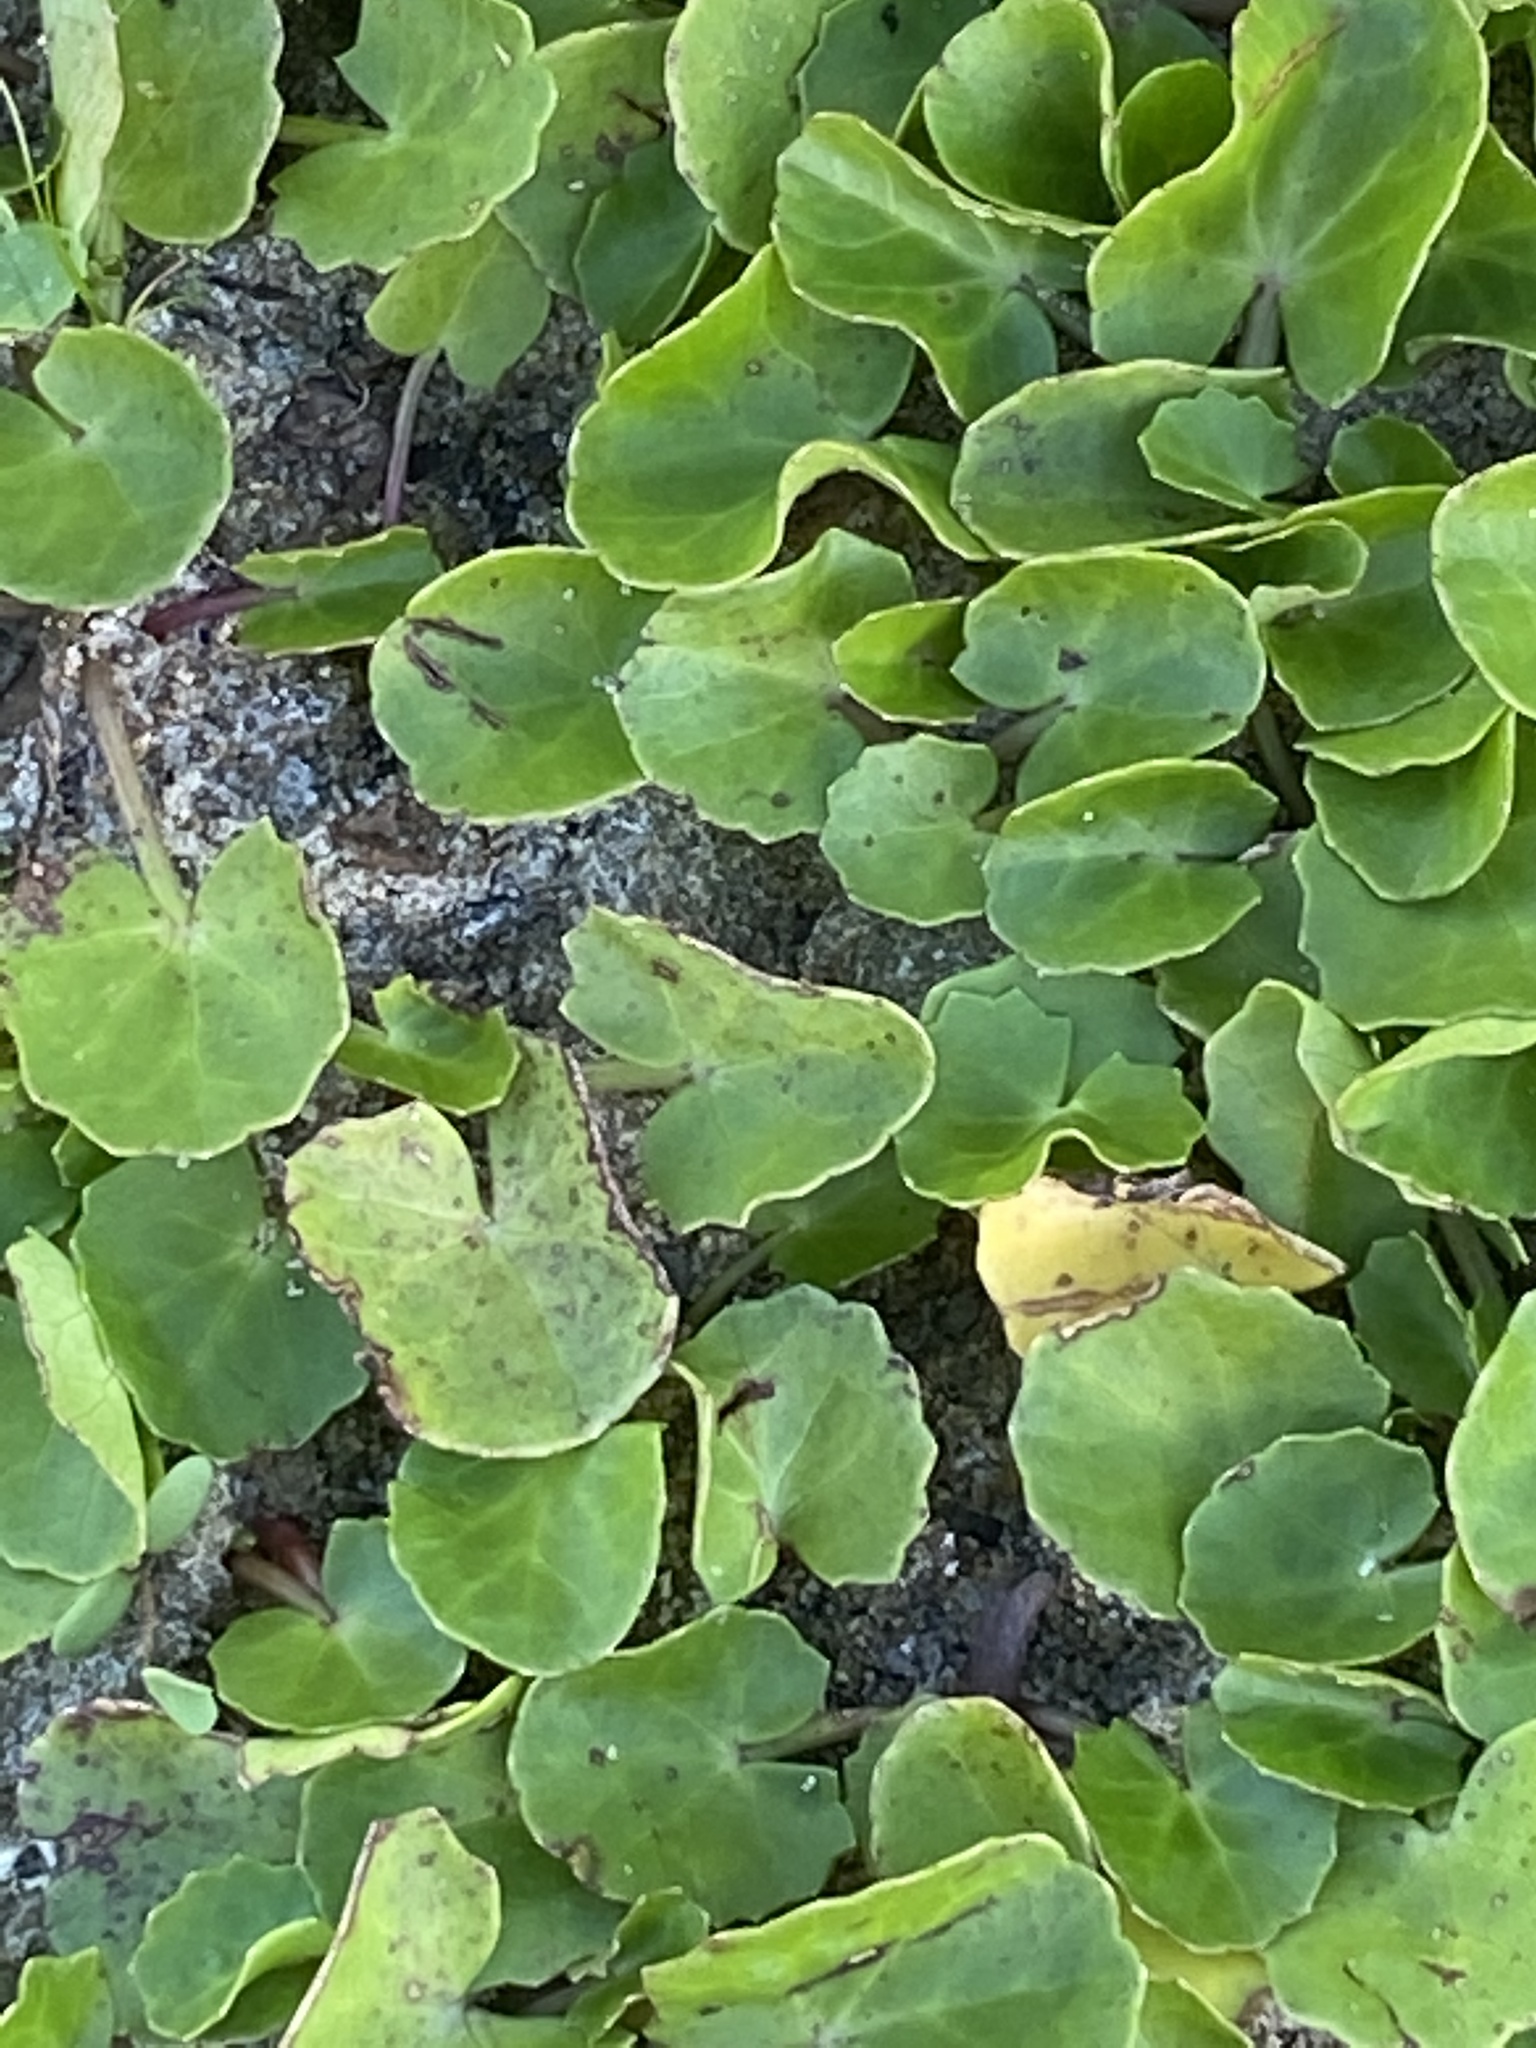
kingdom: Plantae
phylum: Tracheophyta
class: Magnoliopsida
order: Apiales
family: Apiaceae
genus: Centella
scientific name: Centella asiatica
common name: Spadeleaf
